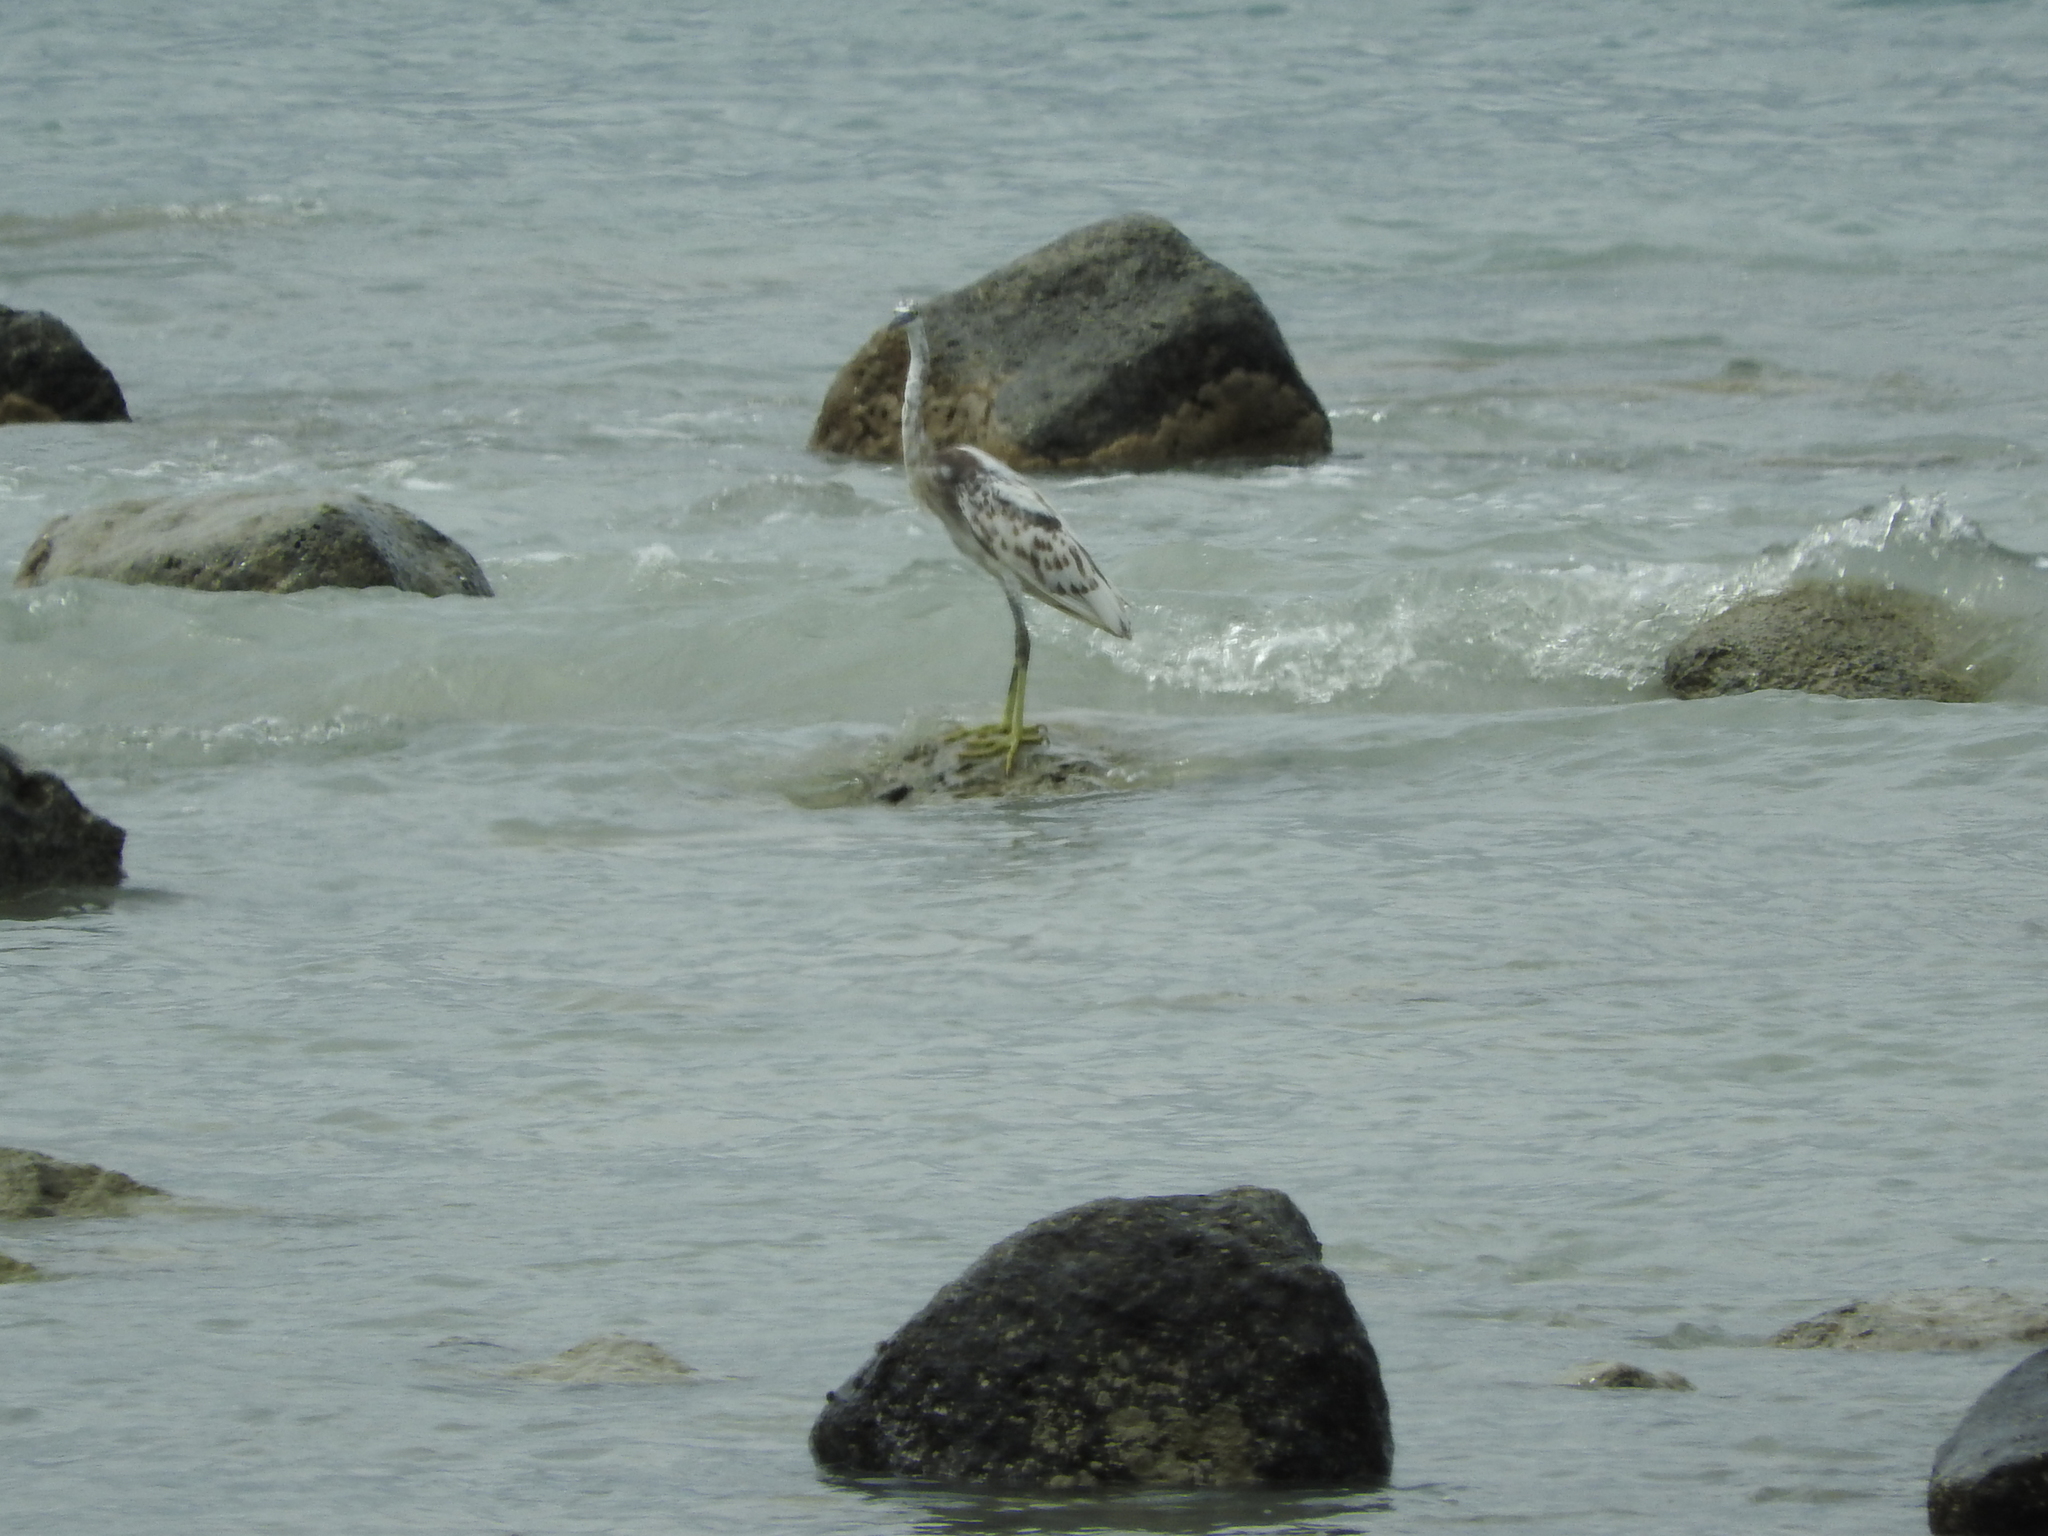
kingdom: Animalia
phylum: Chordata
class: Aves
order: Pelecaniformes
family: Ardeidae
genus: Egretta
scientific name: Egretta gularis
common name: Western reef-heron
